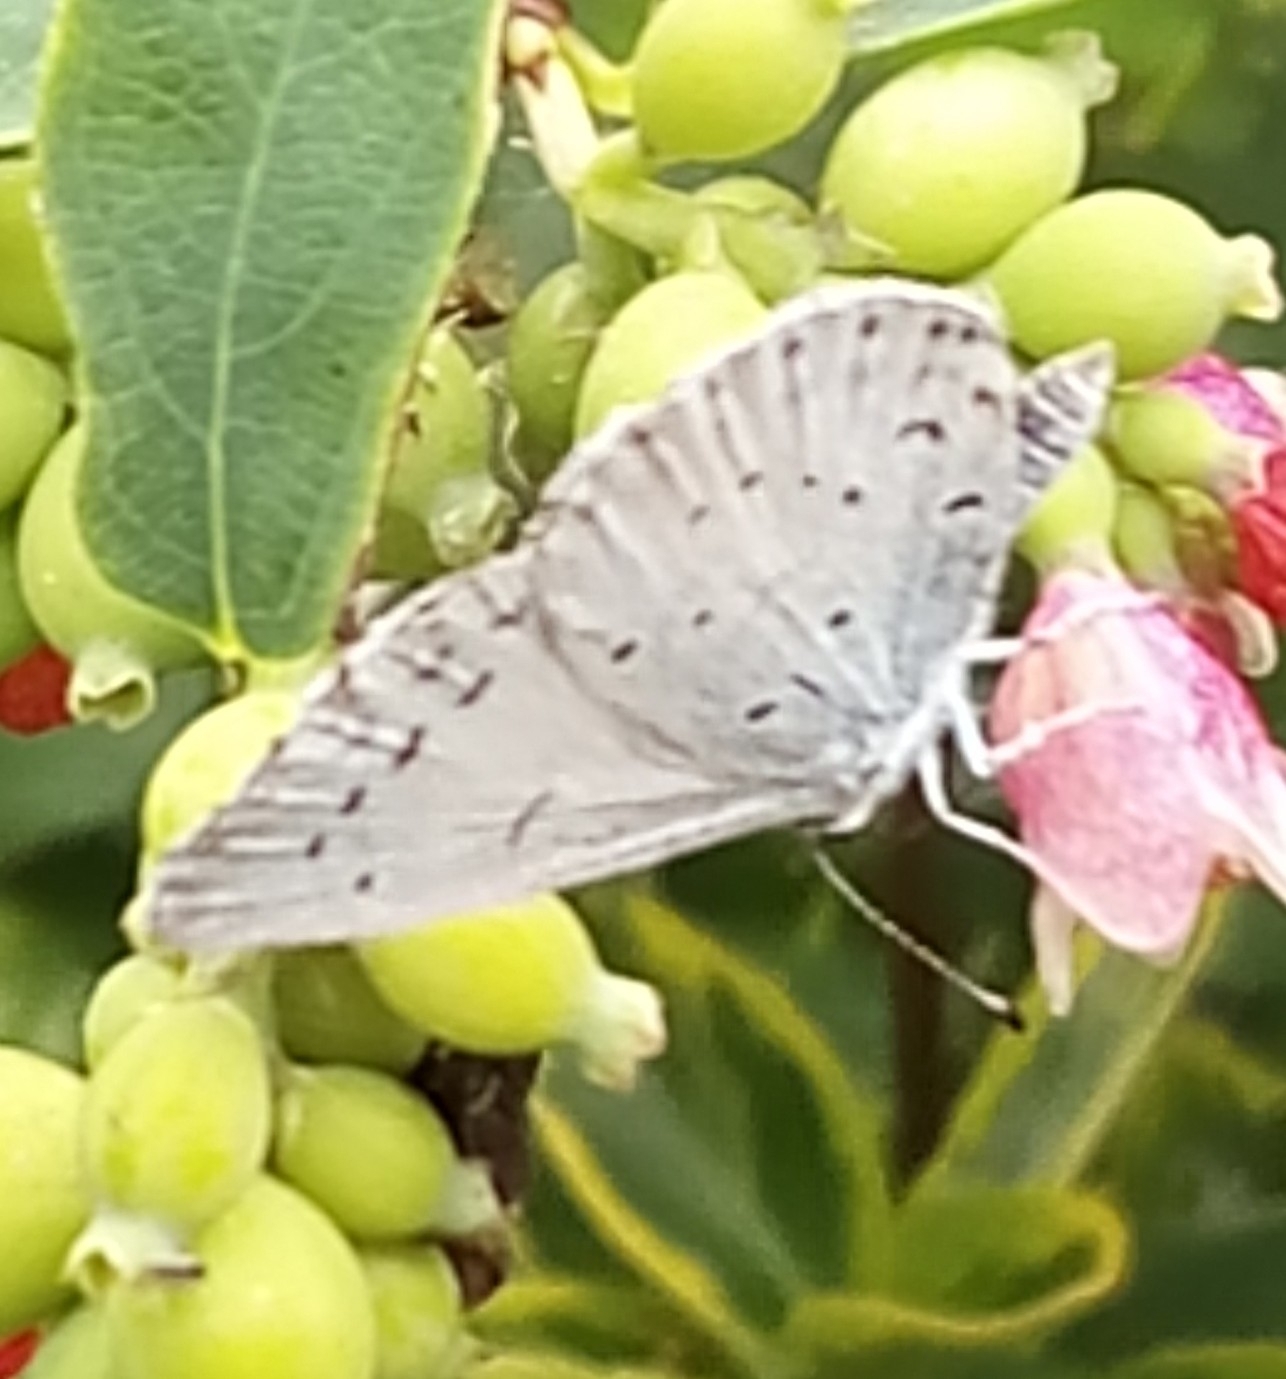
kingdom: Animalia
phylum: Arthropoda
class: Insecta
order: Lepidoptera
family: Lycaenidae
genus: Celastrina
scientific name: Celastrina argiolus
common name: Holly blue
